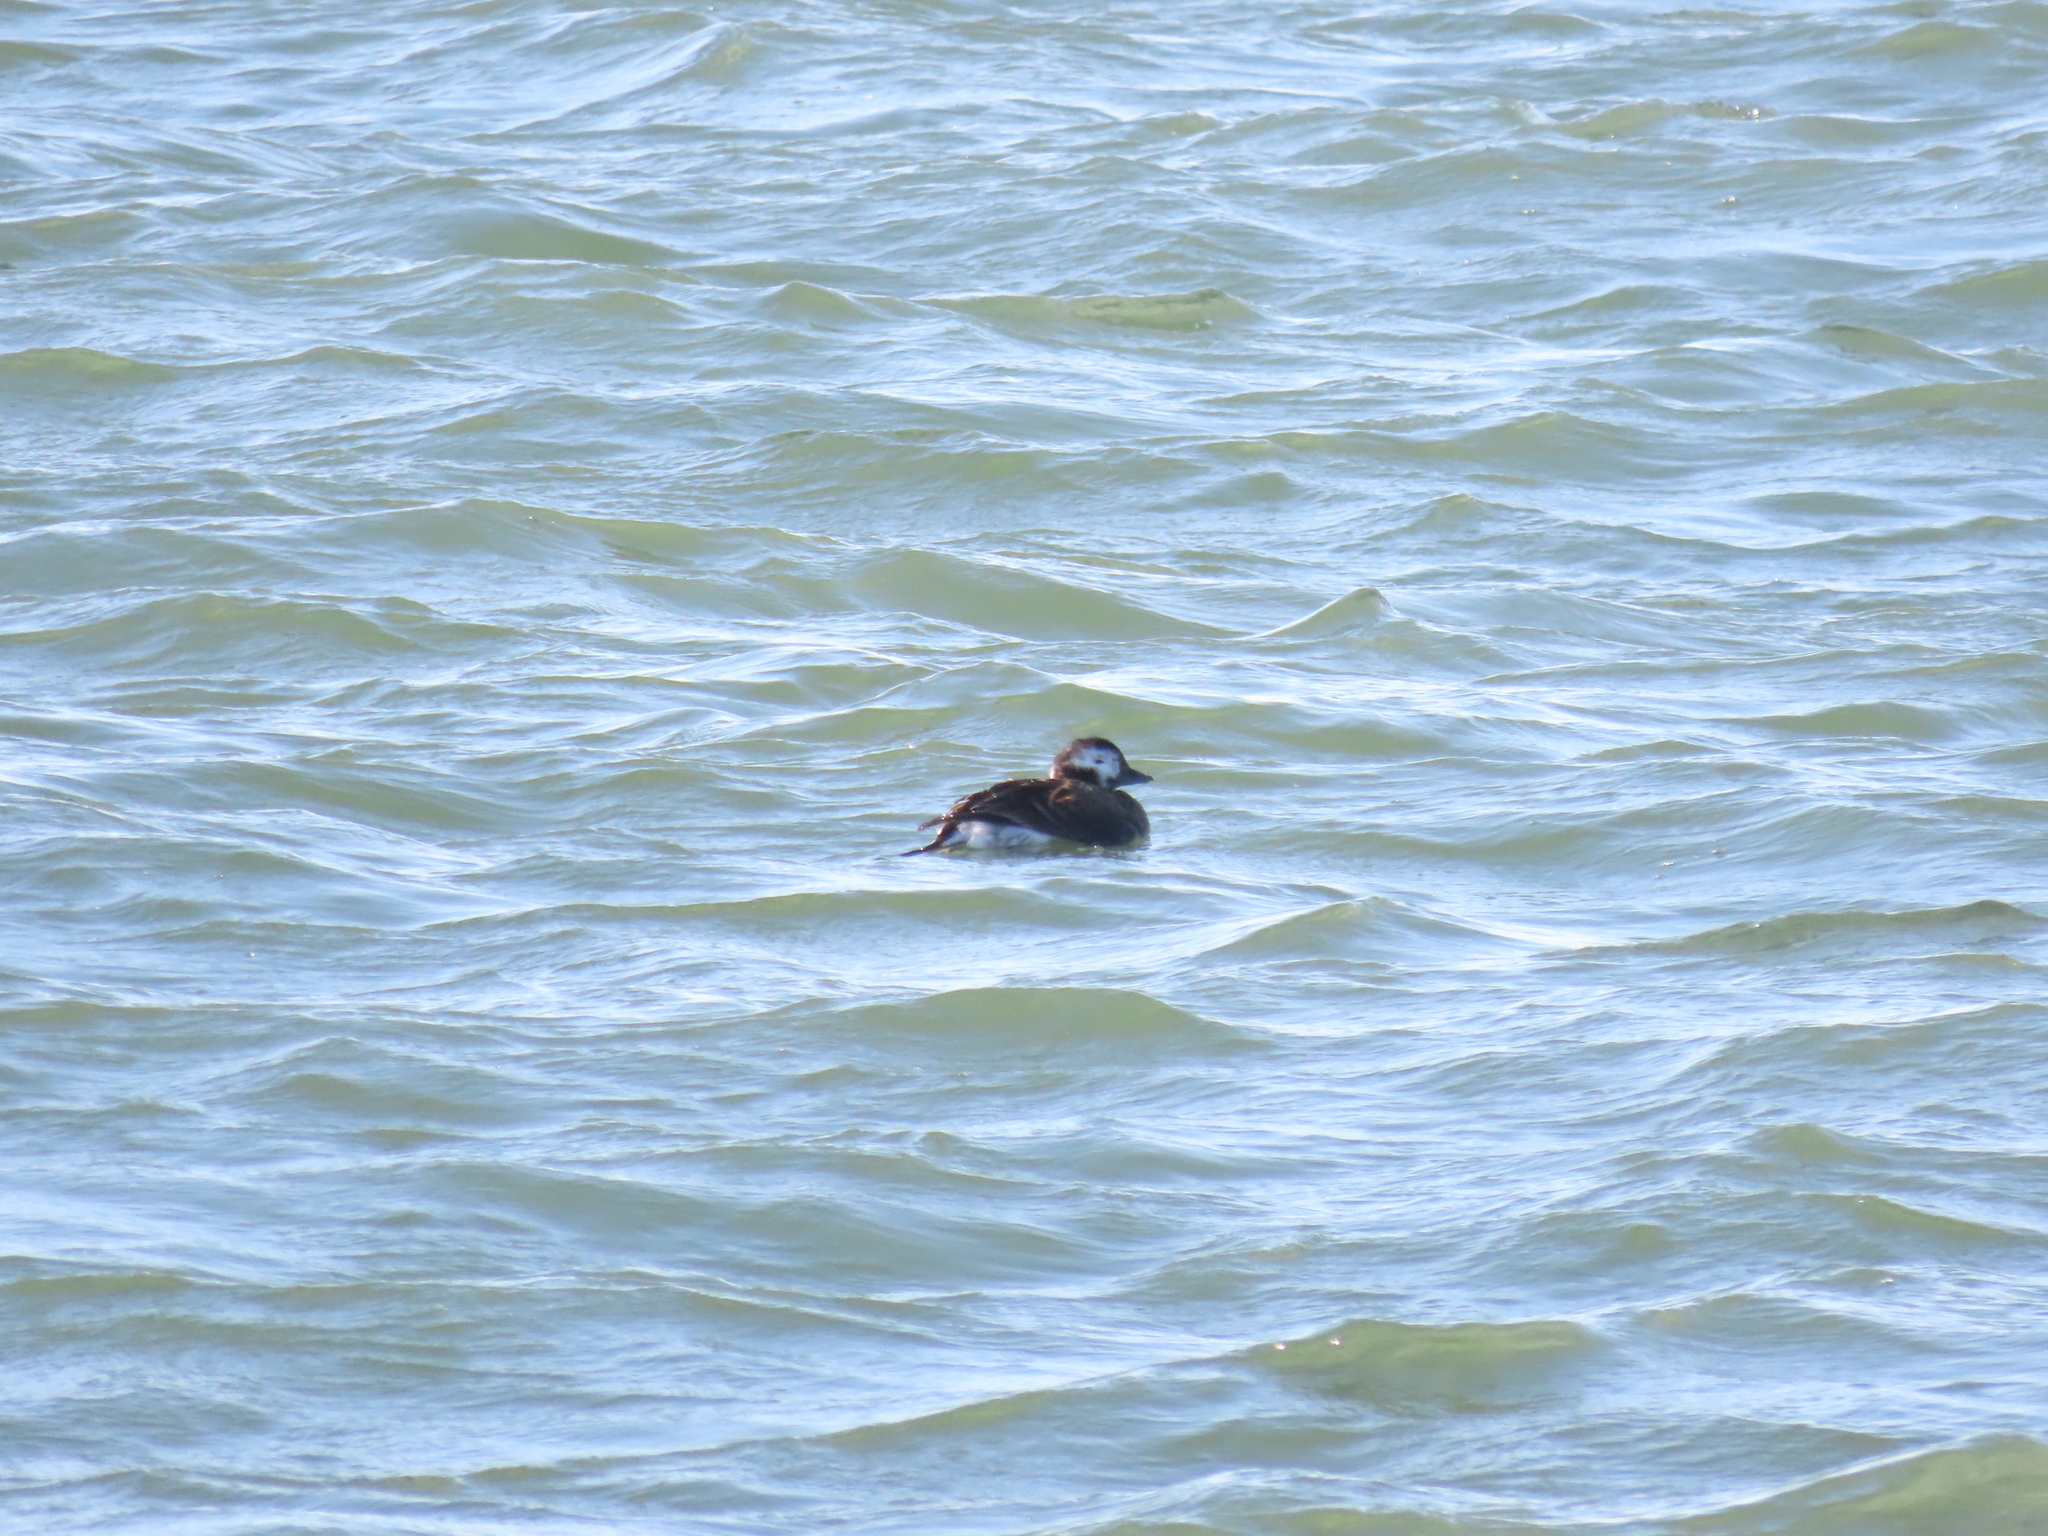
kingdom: Animalia
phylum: Chordata
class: Aves
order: Anseriformes
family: Anatidae
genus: Clangula
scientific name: Clangula hyemalis
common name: Long-tailed duck
